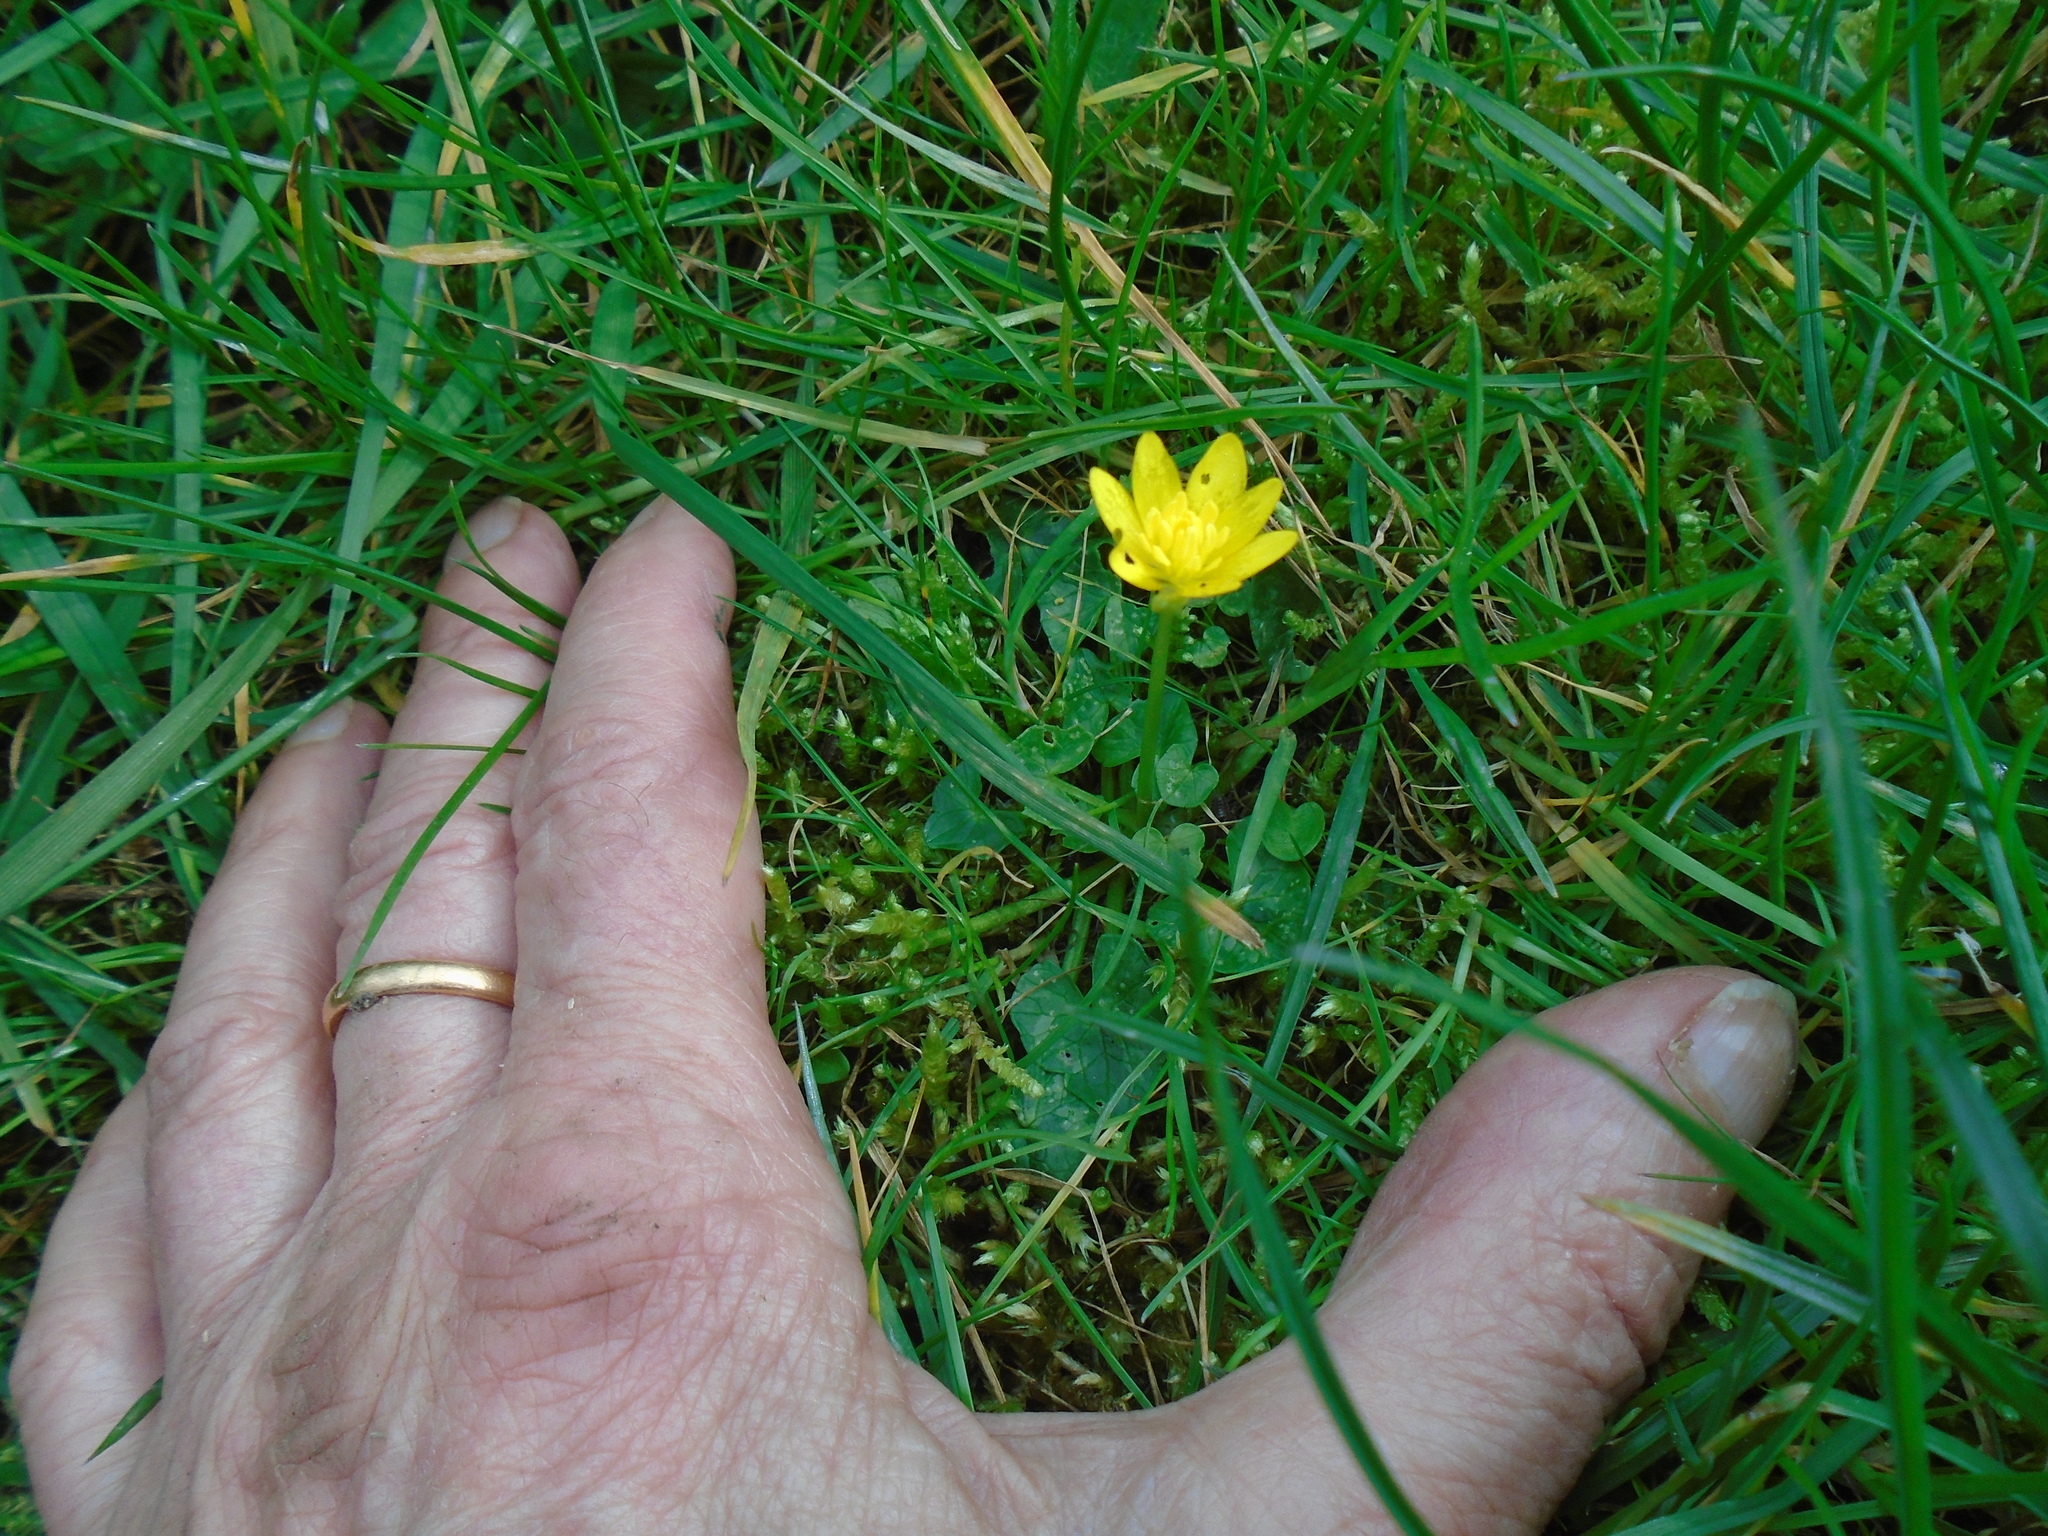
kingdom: Plantae
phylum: Tracheophyta
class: Magnoliopsida
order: Ranunculales
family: Ranunculaceae
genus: Ficaria
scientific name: Ficaria verna
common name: Lesser celandine
